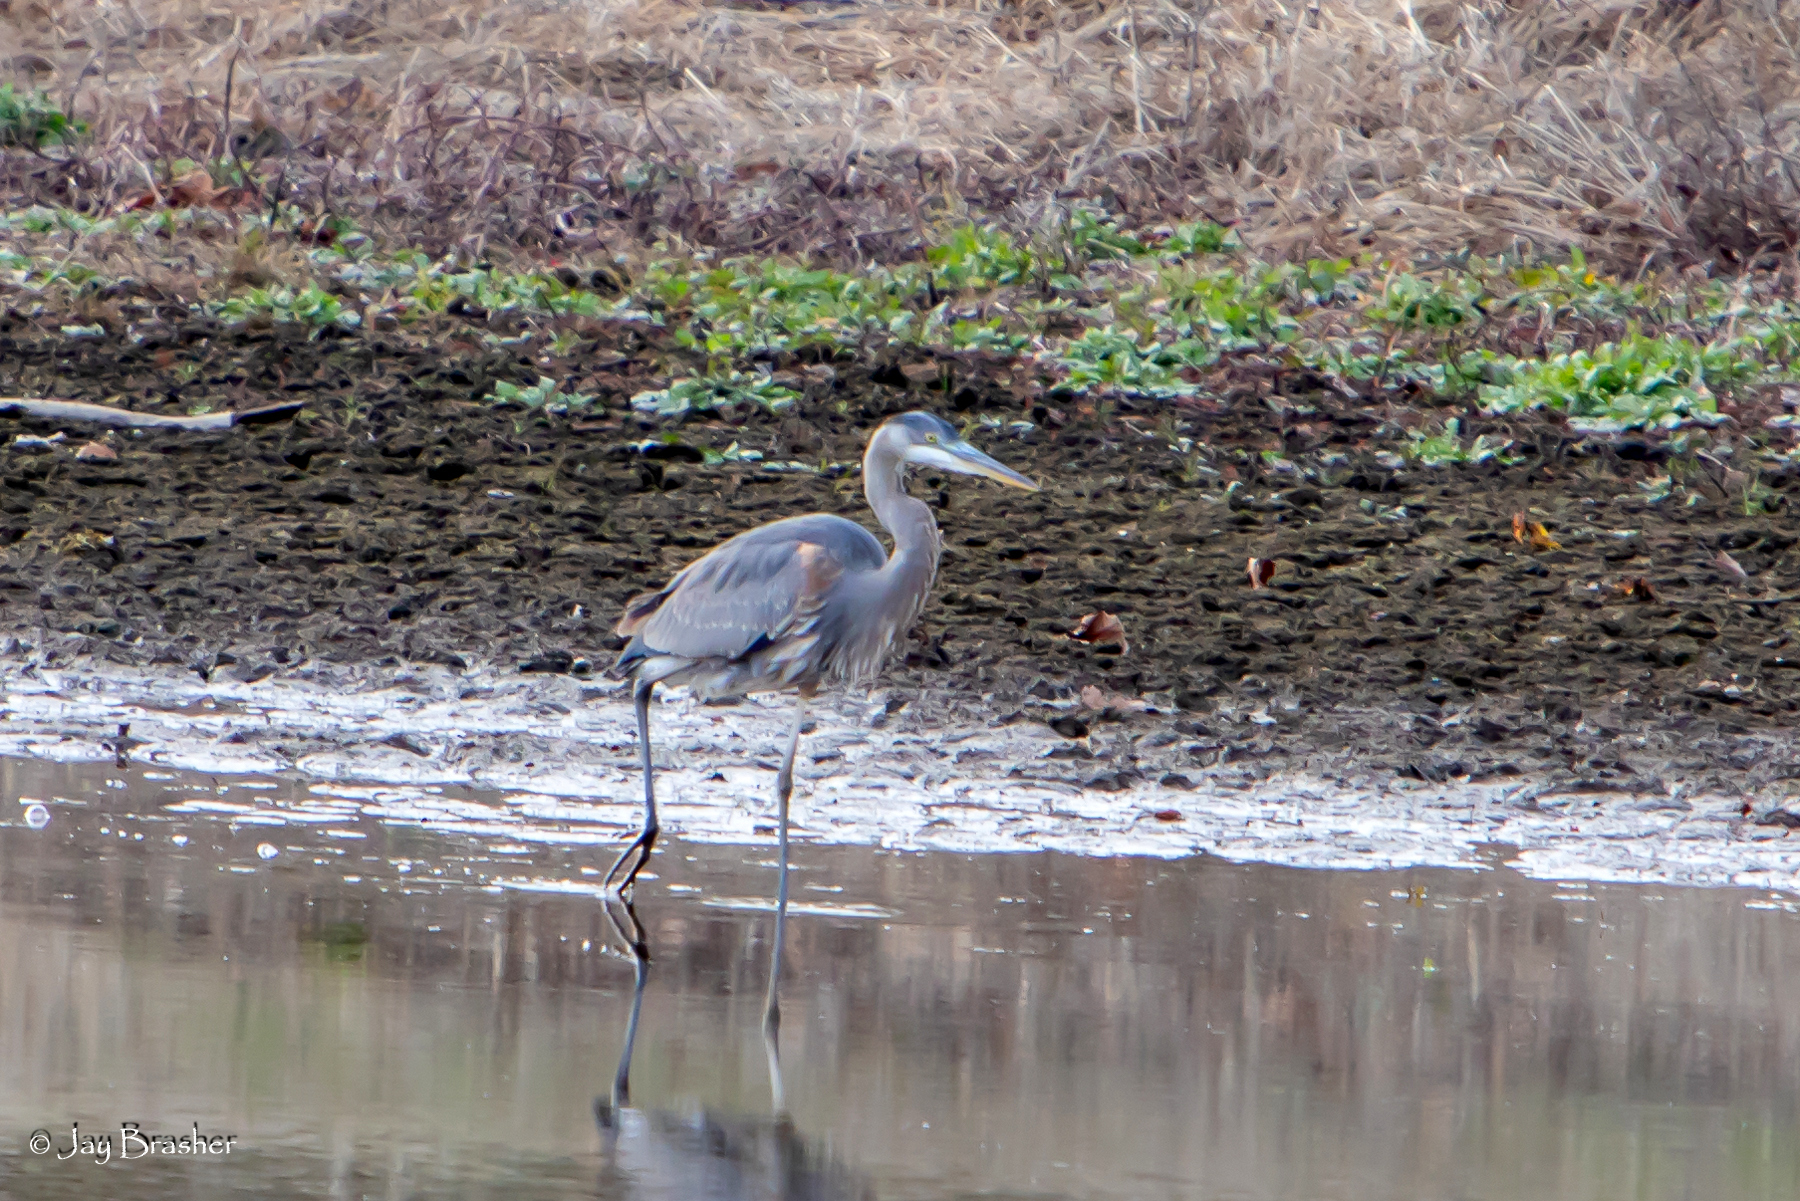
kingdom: Animalia
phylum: Chordata
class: Aves
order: Pelecaniformes
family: Ardeidae
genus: Ardea
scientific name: Ardea herodias
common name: Great blue heron
